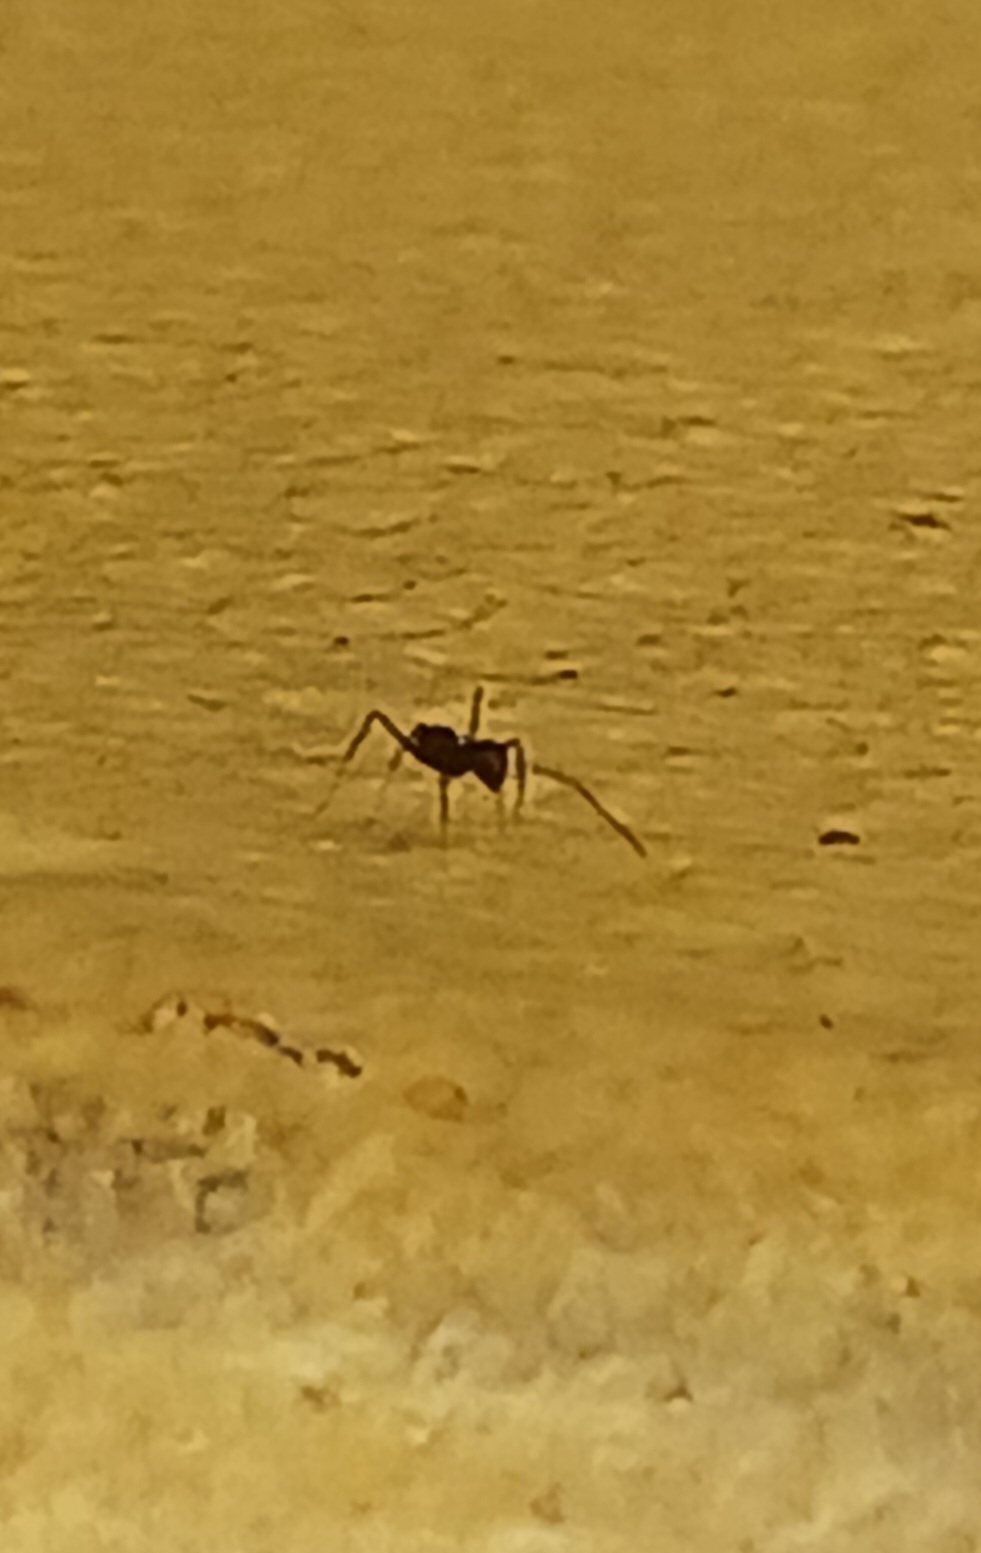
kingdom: Animalia
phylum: Arthropoda
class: Insecta
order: Hymenoptera
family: Formicidae
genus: Paratrechina
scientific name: Paratrechina longicornis
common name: Longhorned crazy ant
